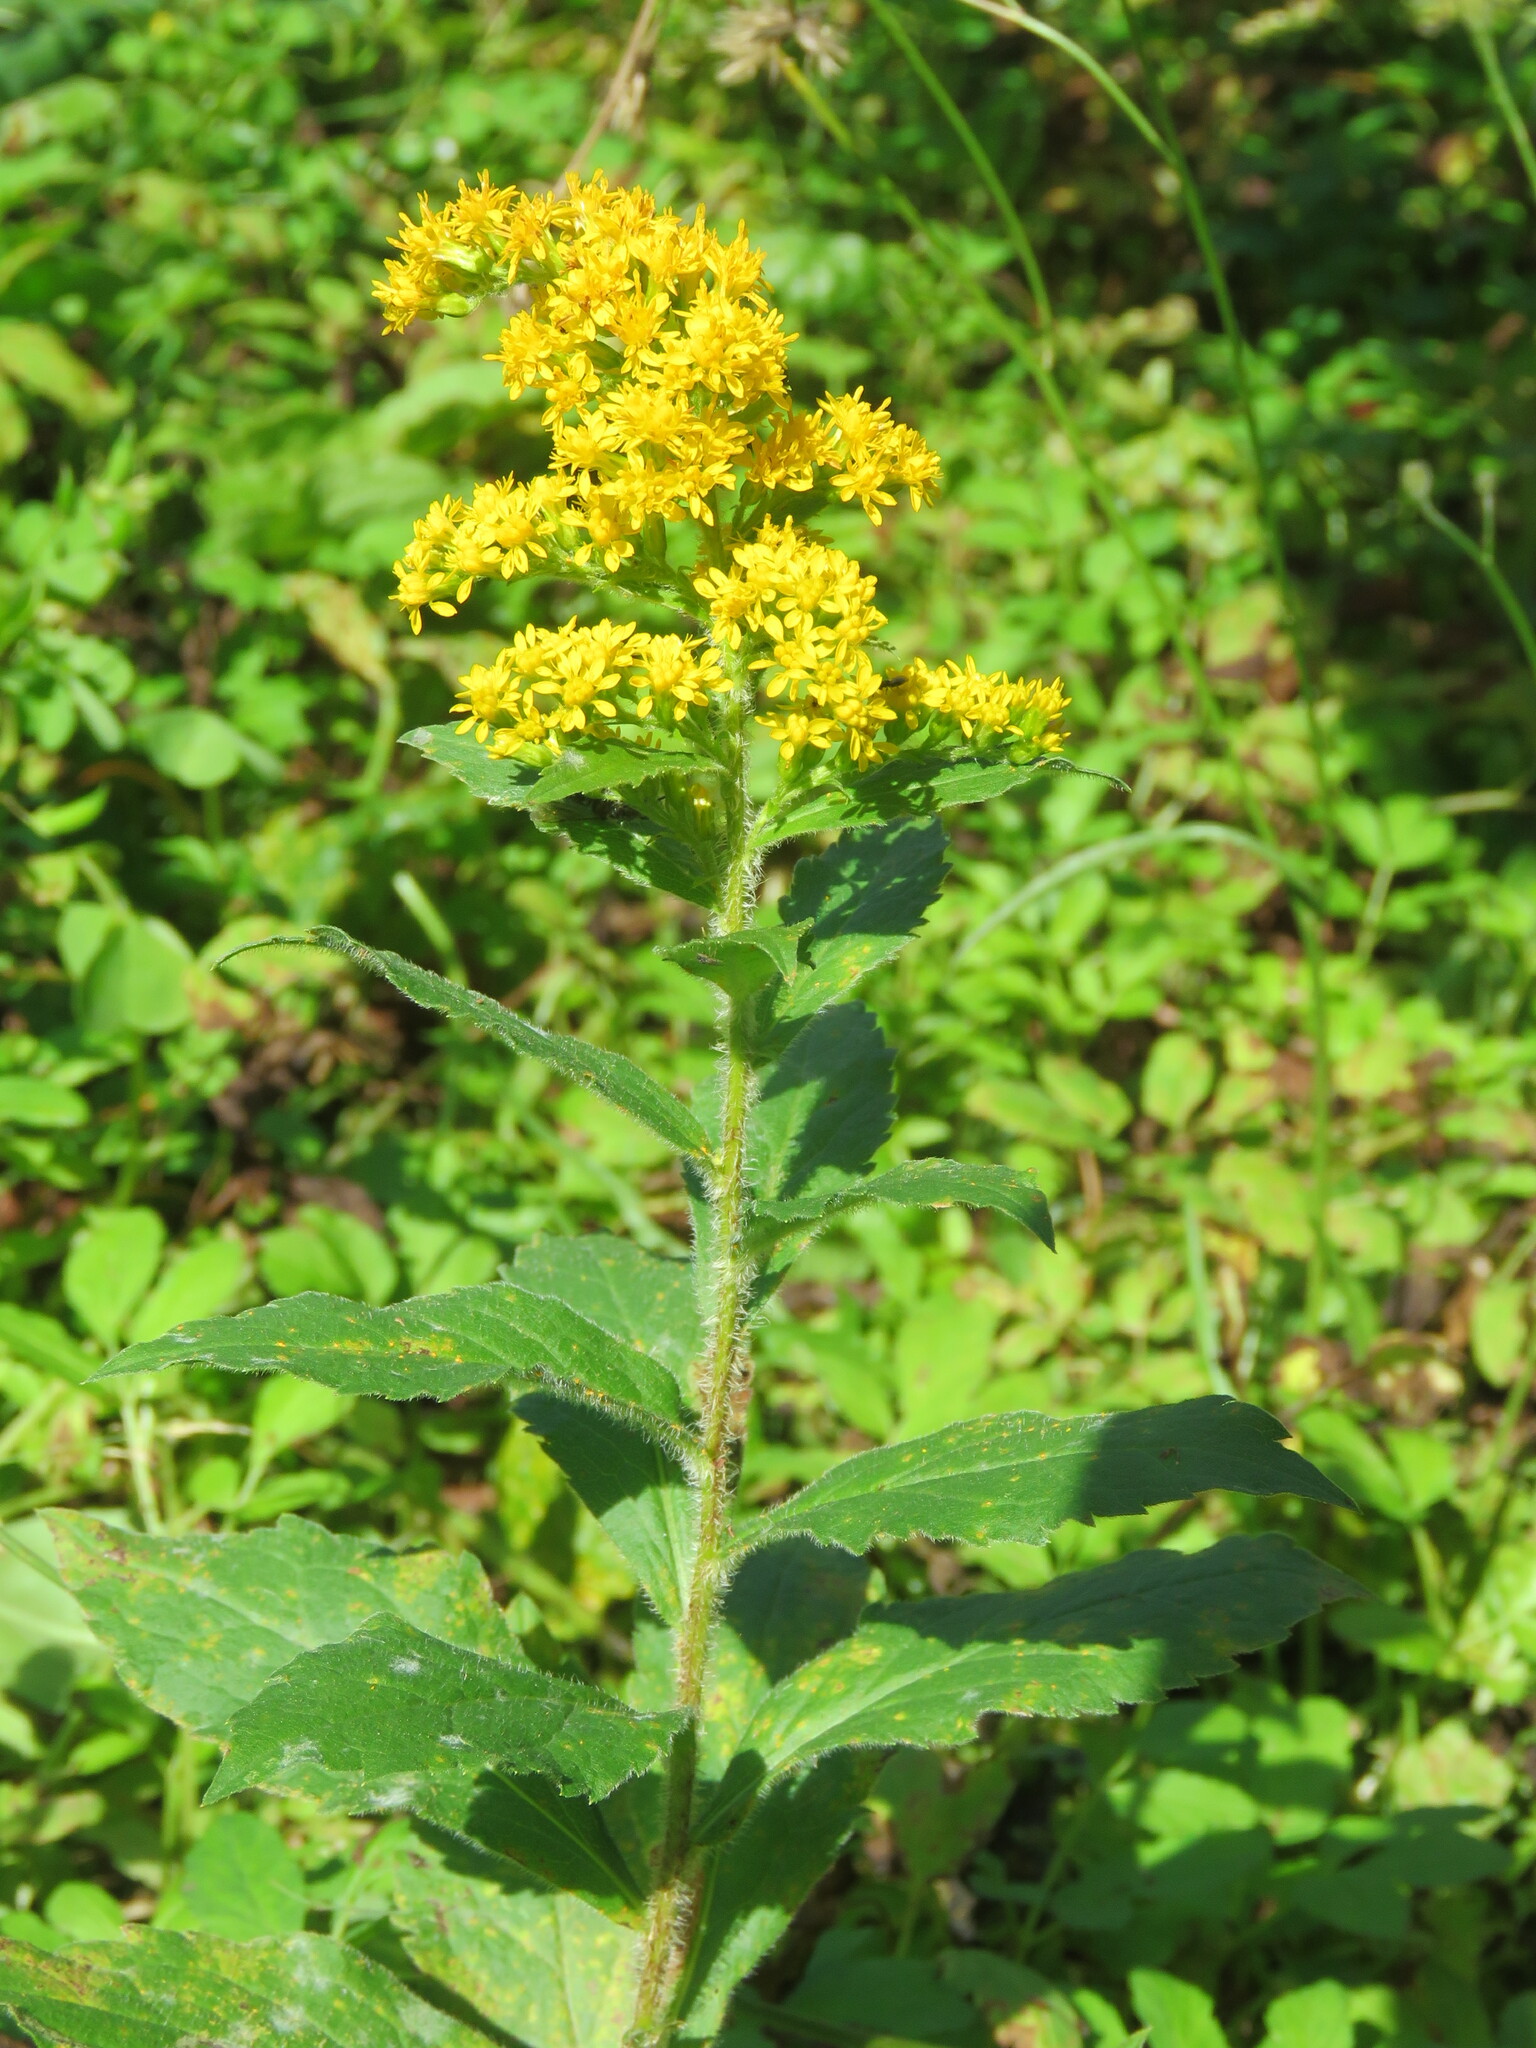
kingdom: Plantae
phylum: Tracheophyta
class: Magnoliopsida
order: Asterales
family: Asteraceae
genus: Solidago
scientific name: Solidago rugosa
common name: Rough-stemmed goldenrod
